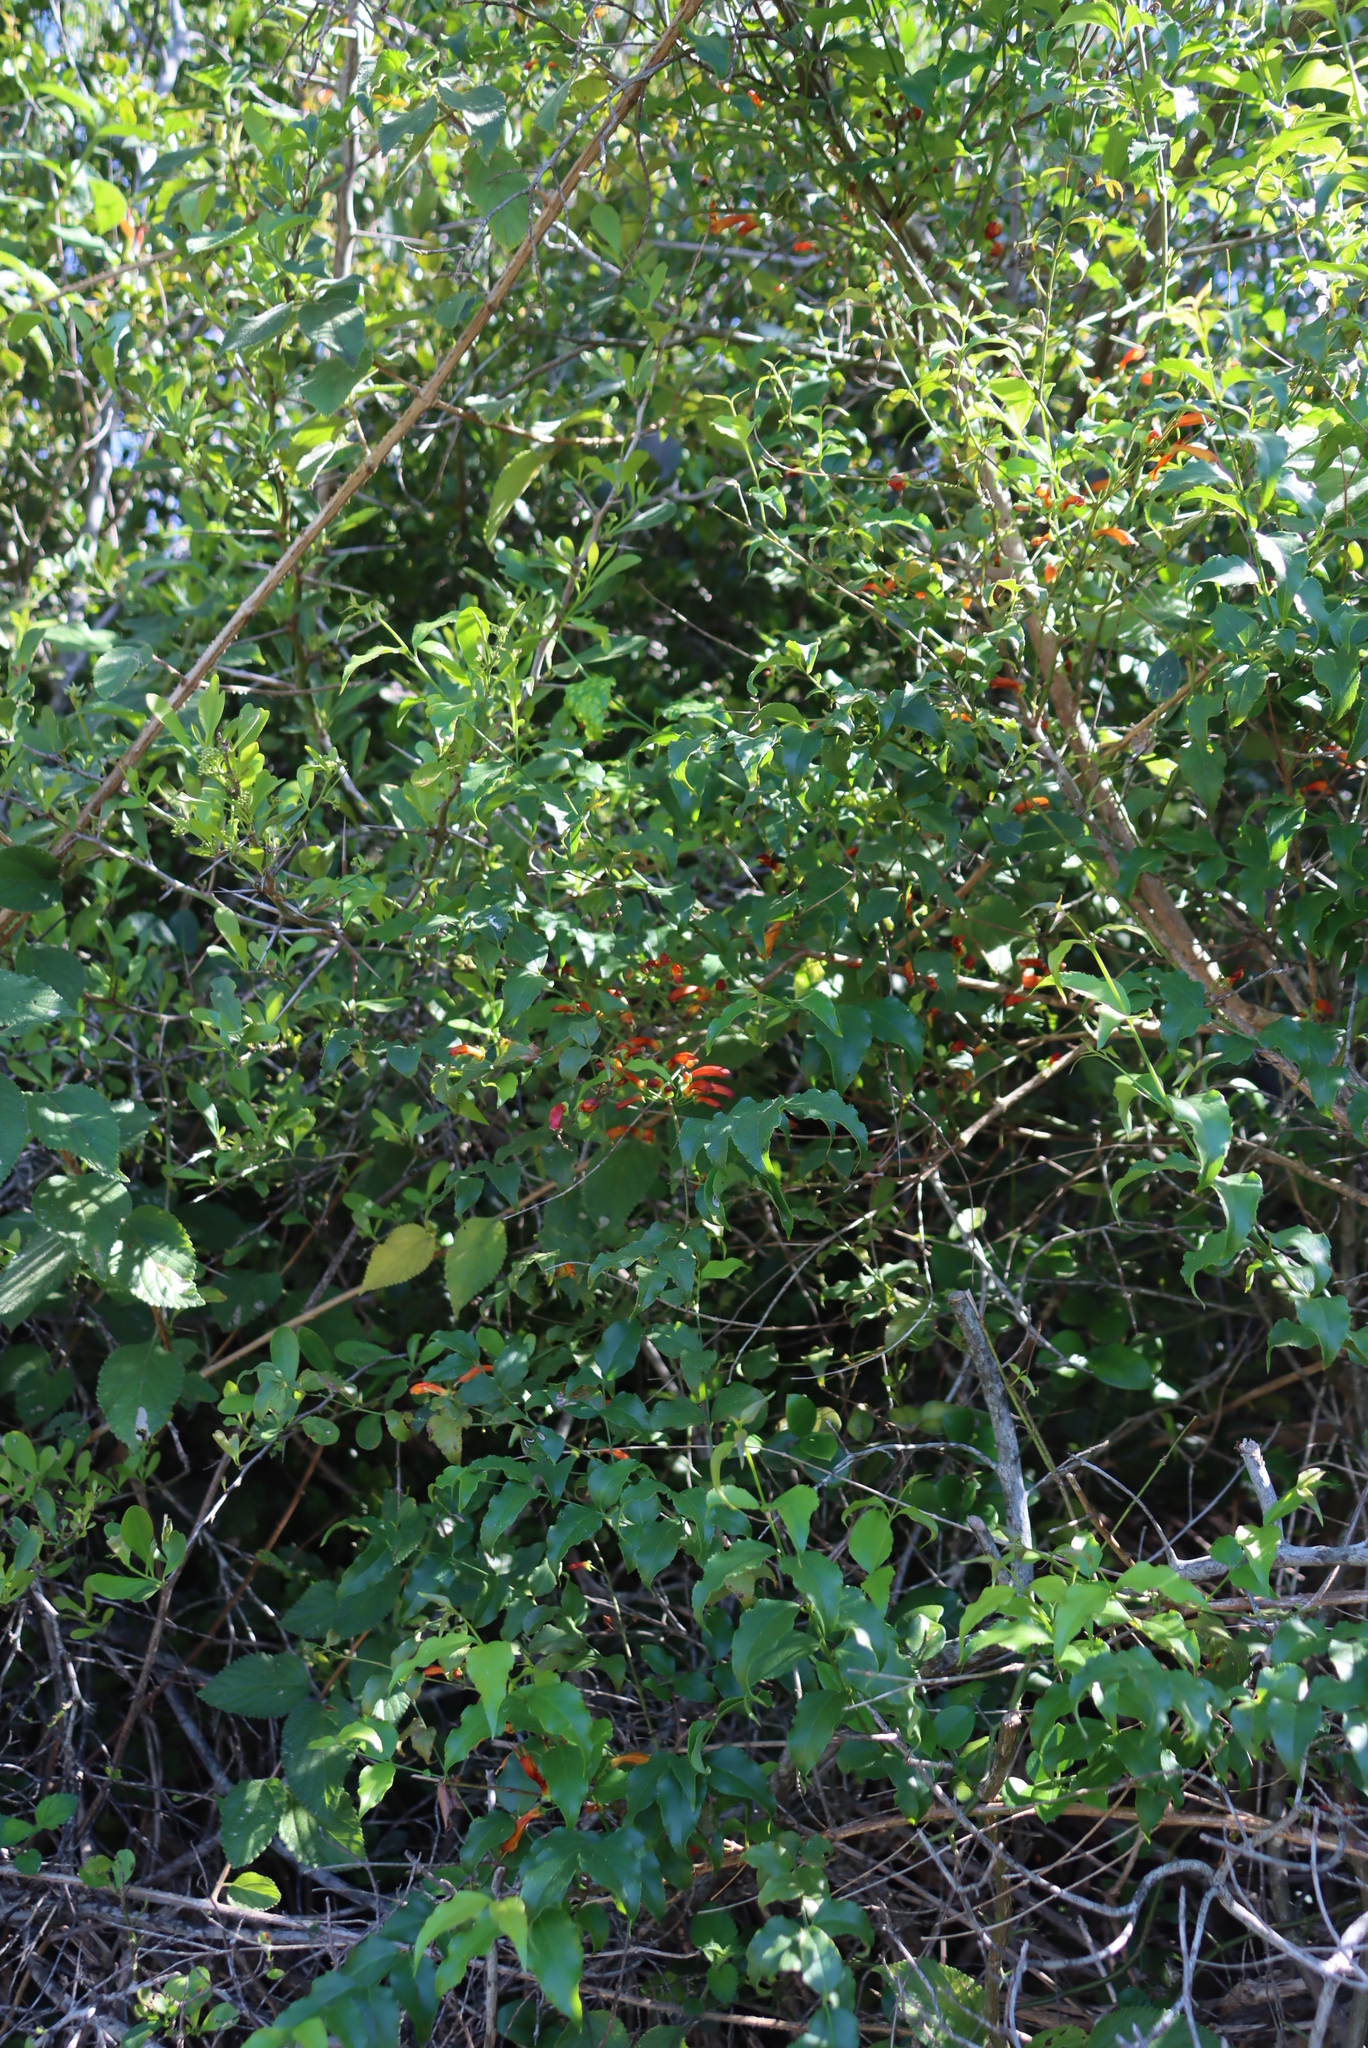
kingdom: Plantae
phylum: Tracheophyta
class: Magnoliopsida
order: Lamiales
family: Stilbaceae
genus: Halleria
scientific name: Halleria lucida
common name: Tree fuschia
